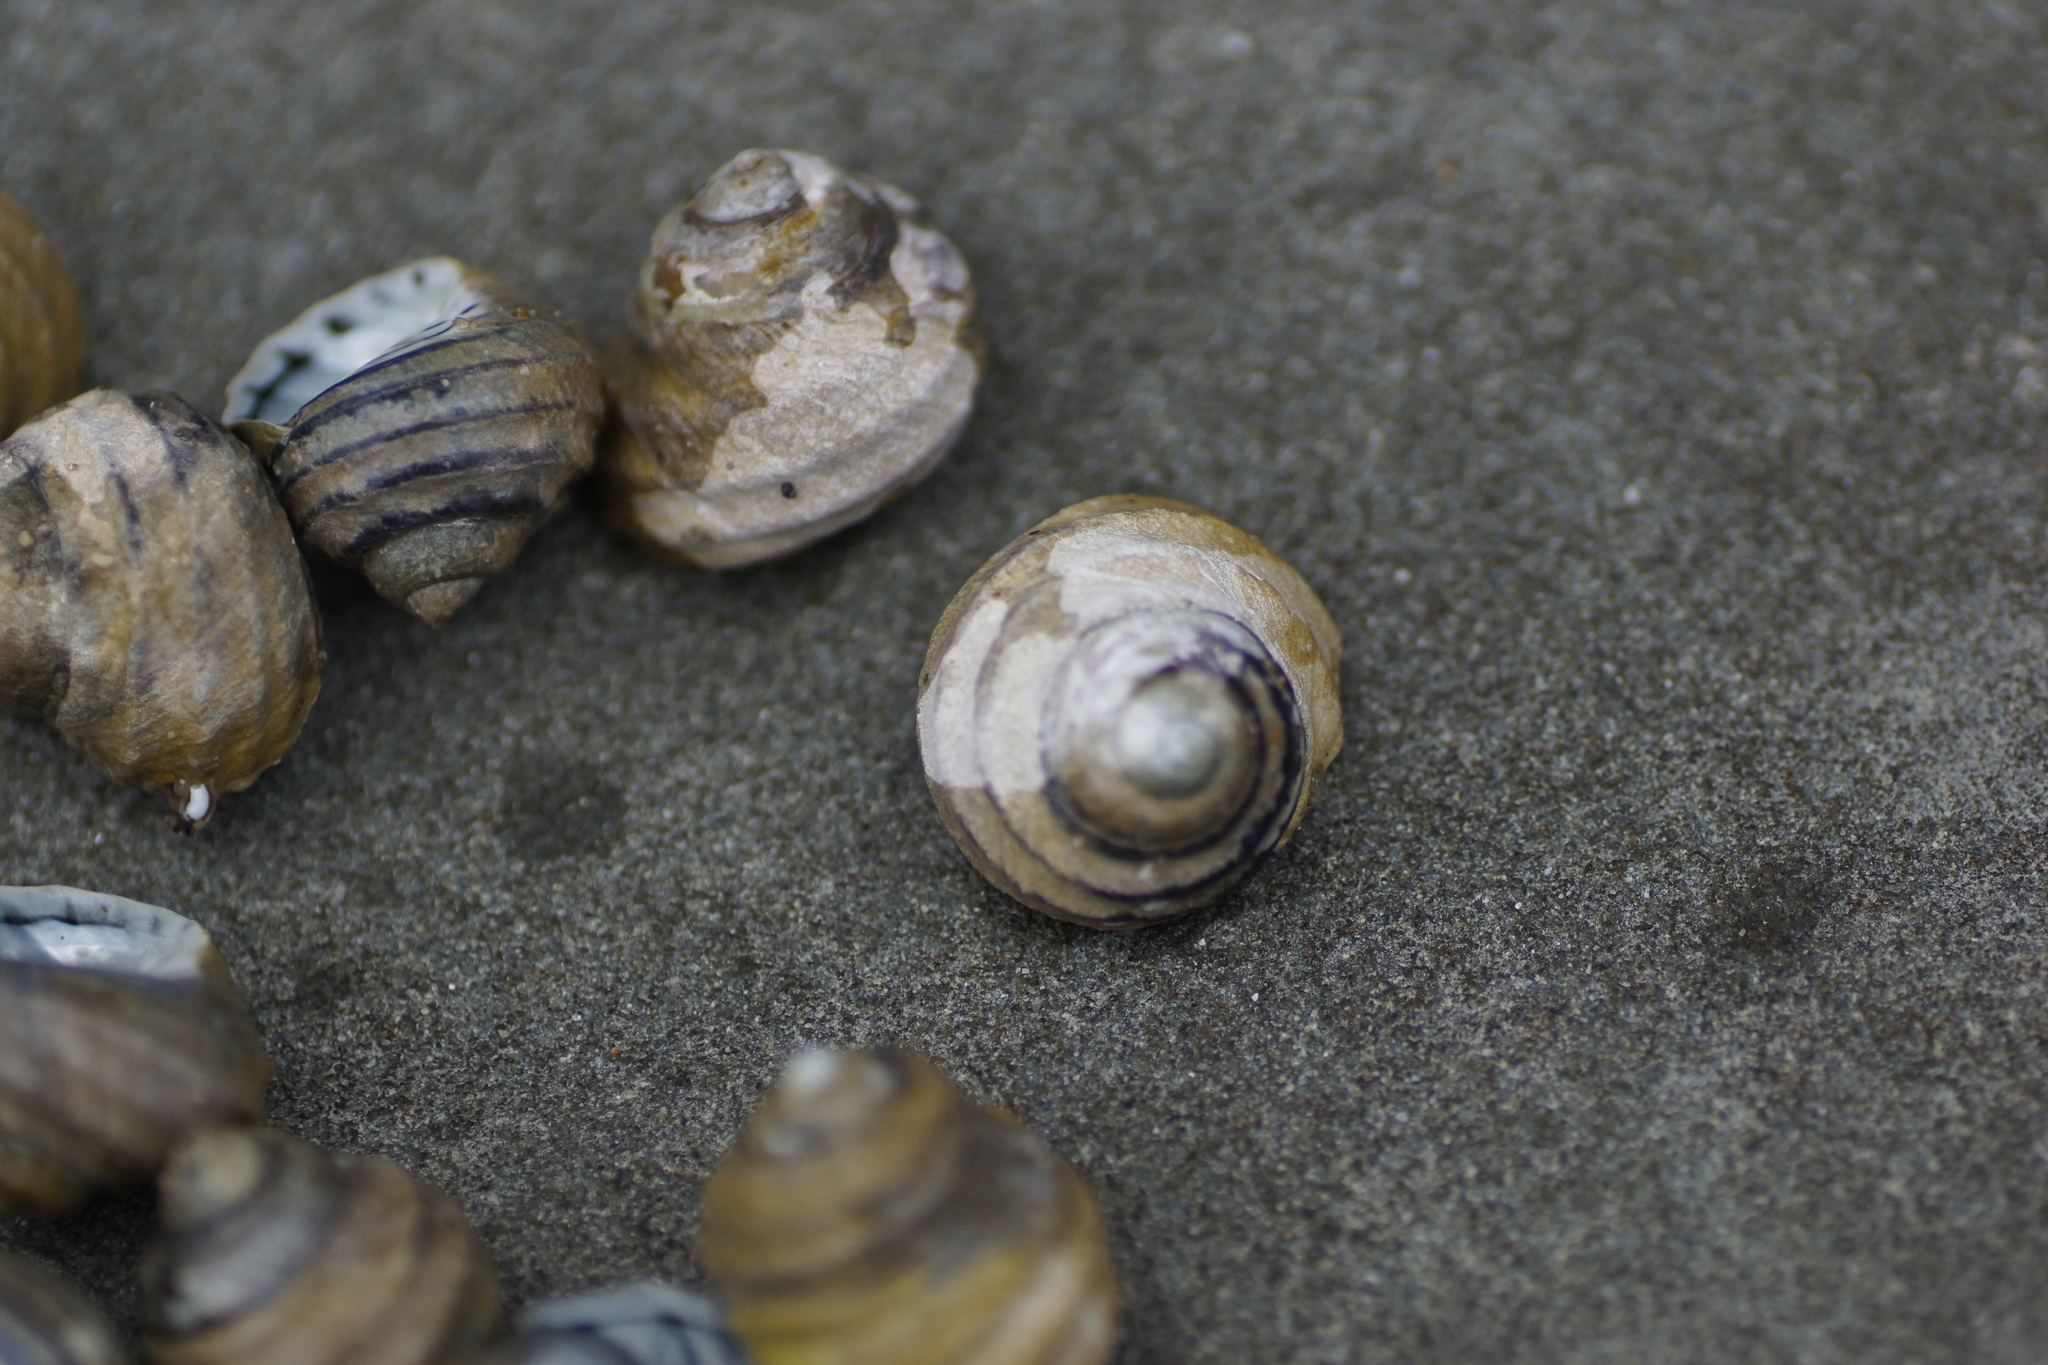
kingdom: Animalia
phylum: Mollusca
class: Gastropoda
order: Trochida
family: Trochidae
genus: Austrocochlea
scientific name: Austrocochlea constricta
